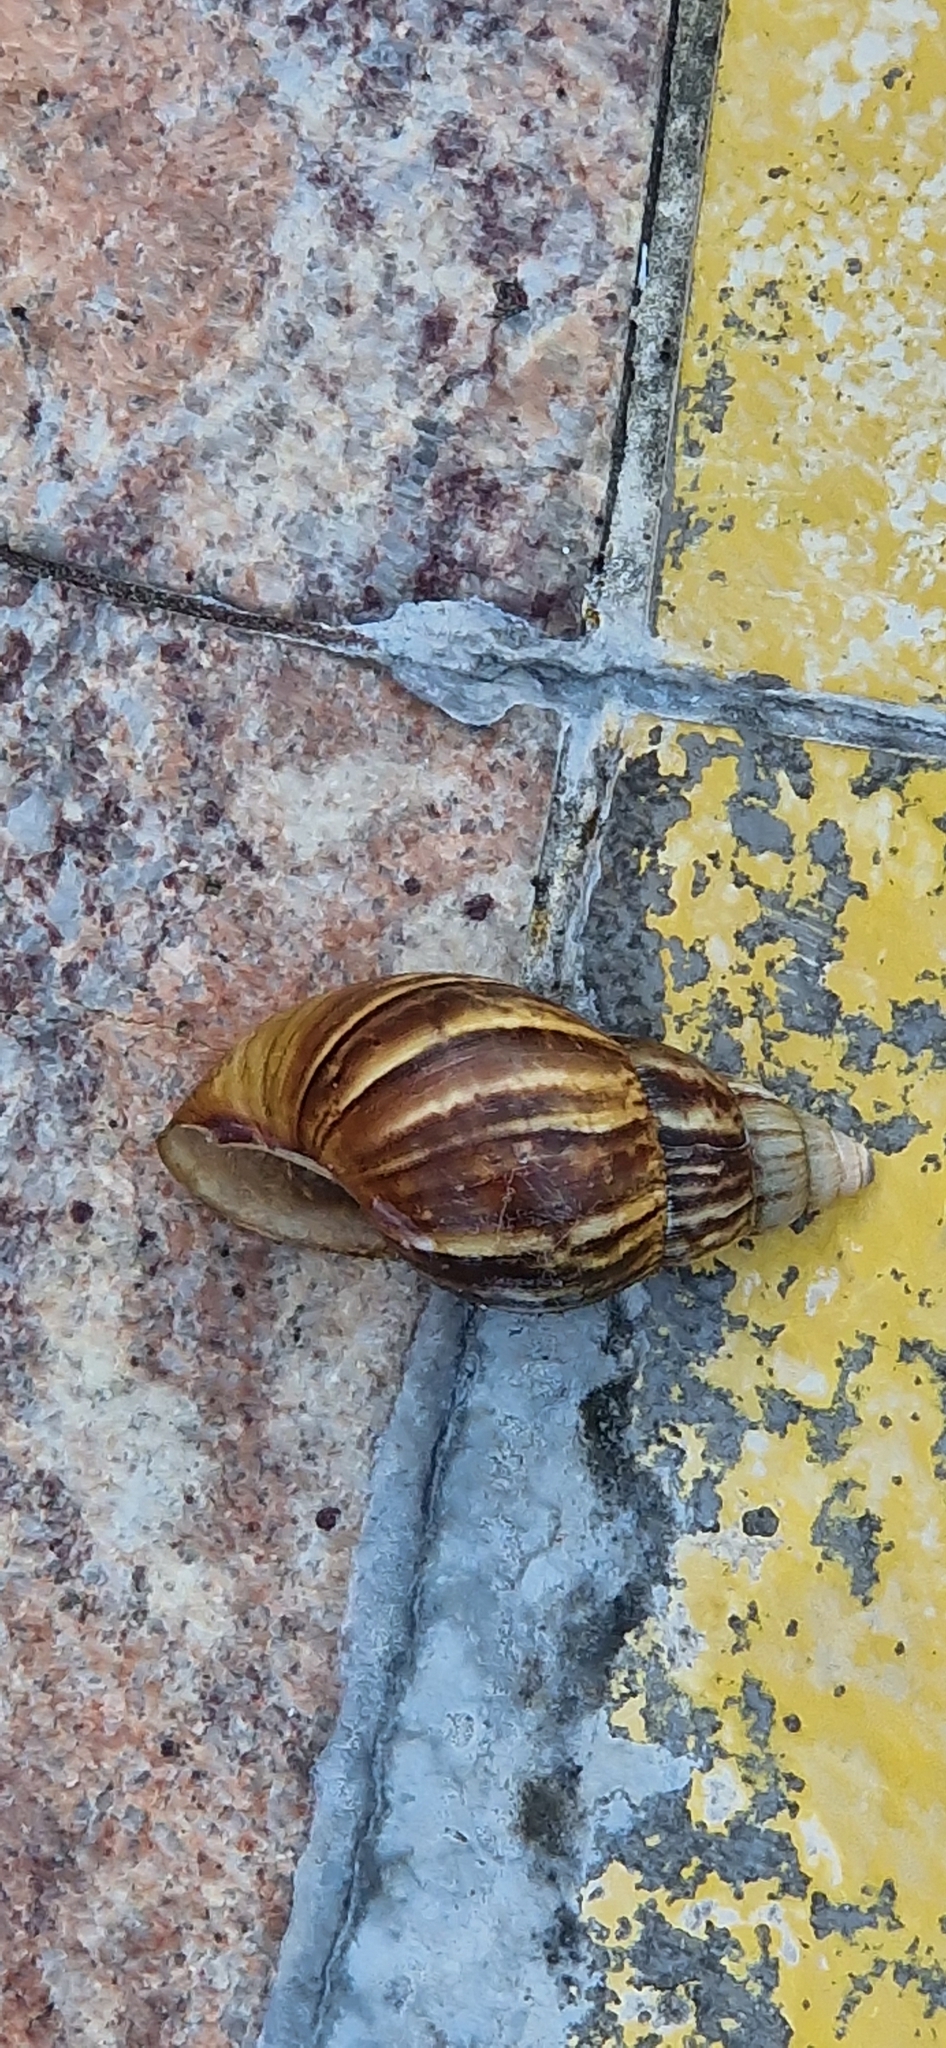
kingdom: Animalia
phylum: Mollusca
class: Gastropoda
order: Stylommatophora
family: Achatinidae
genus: Lissachatina
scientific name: Lissachatina fulica
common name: Giant african snail
